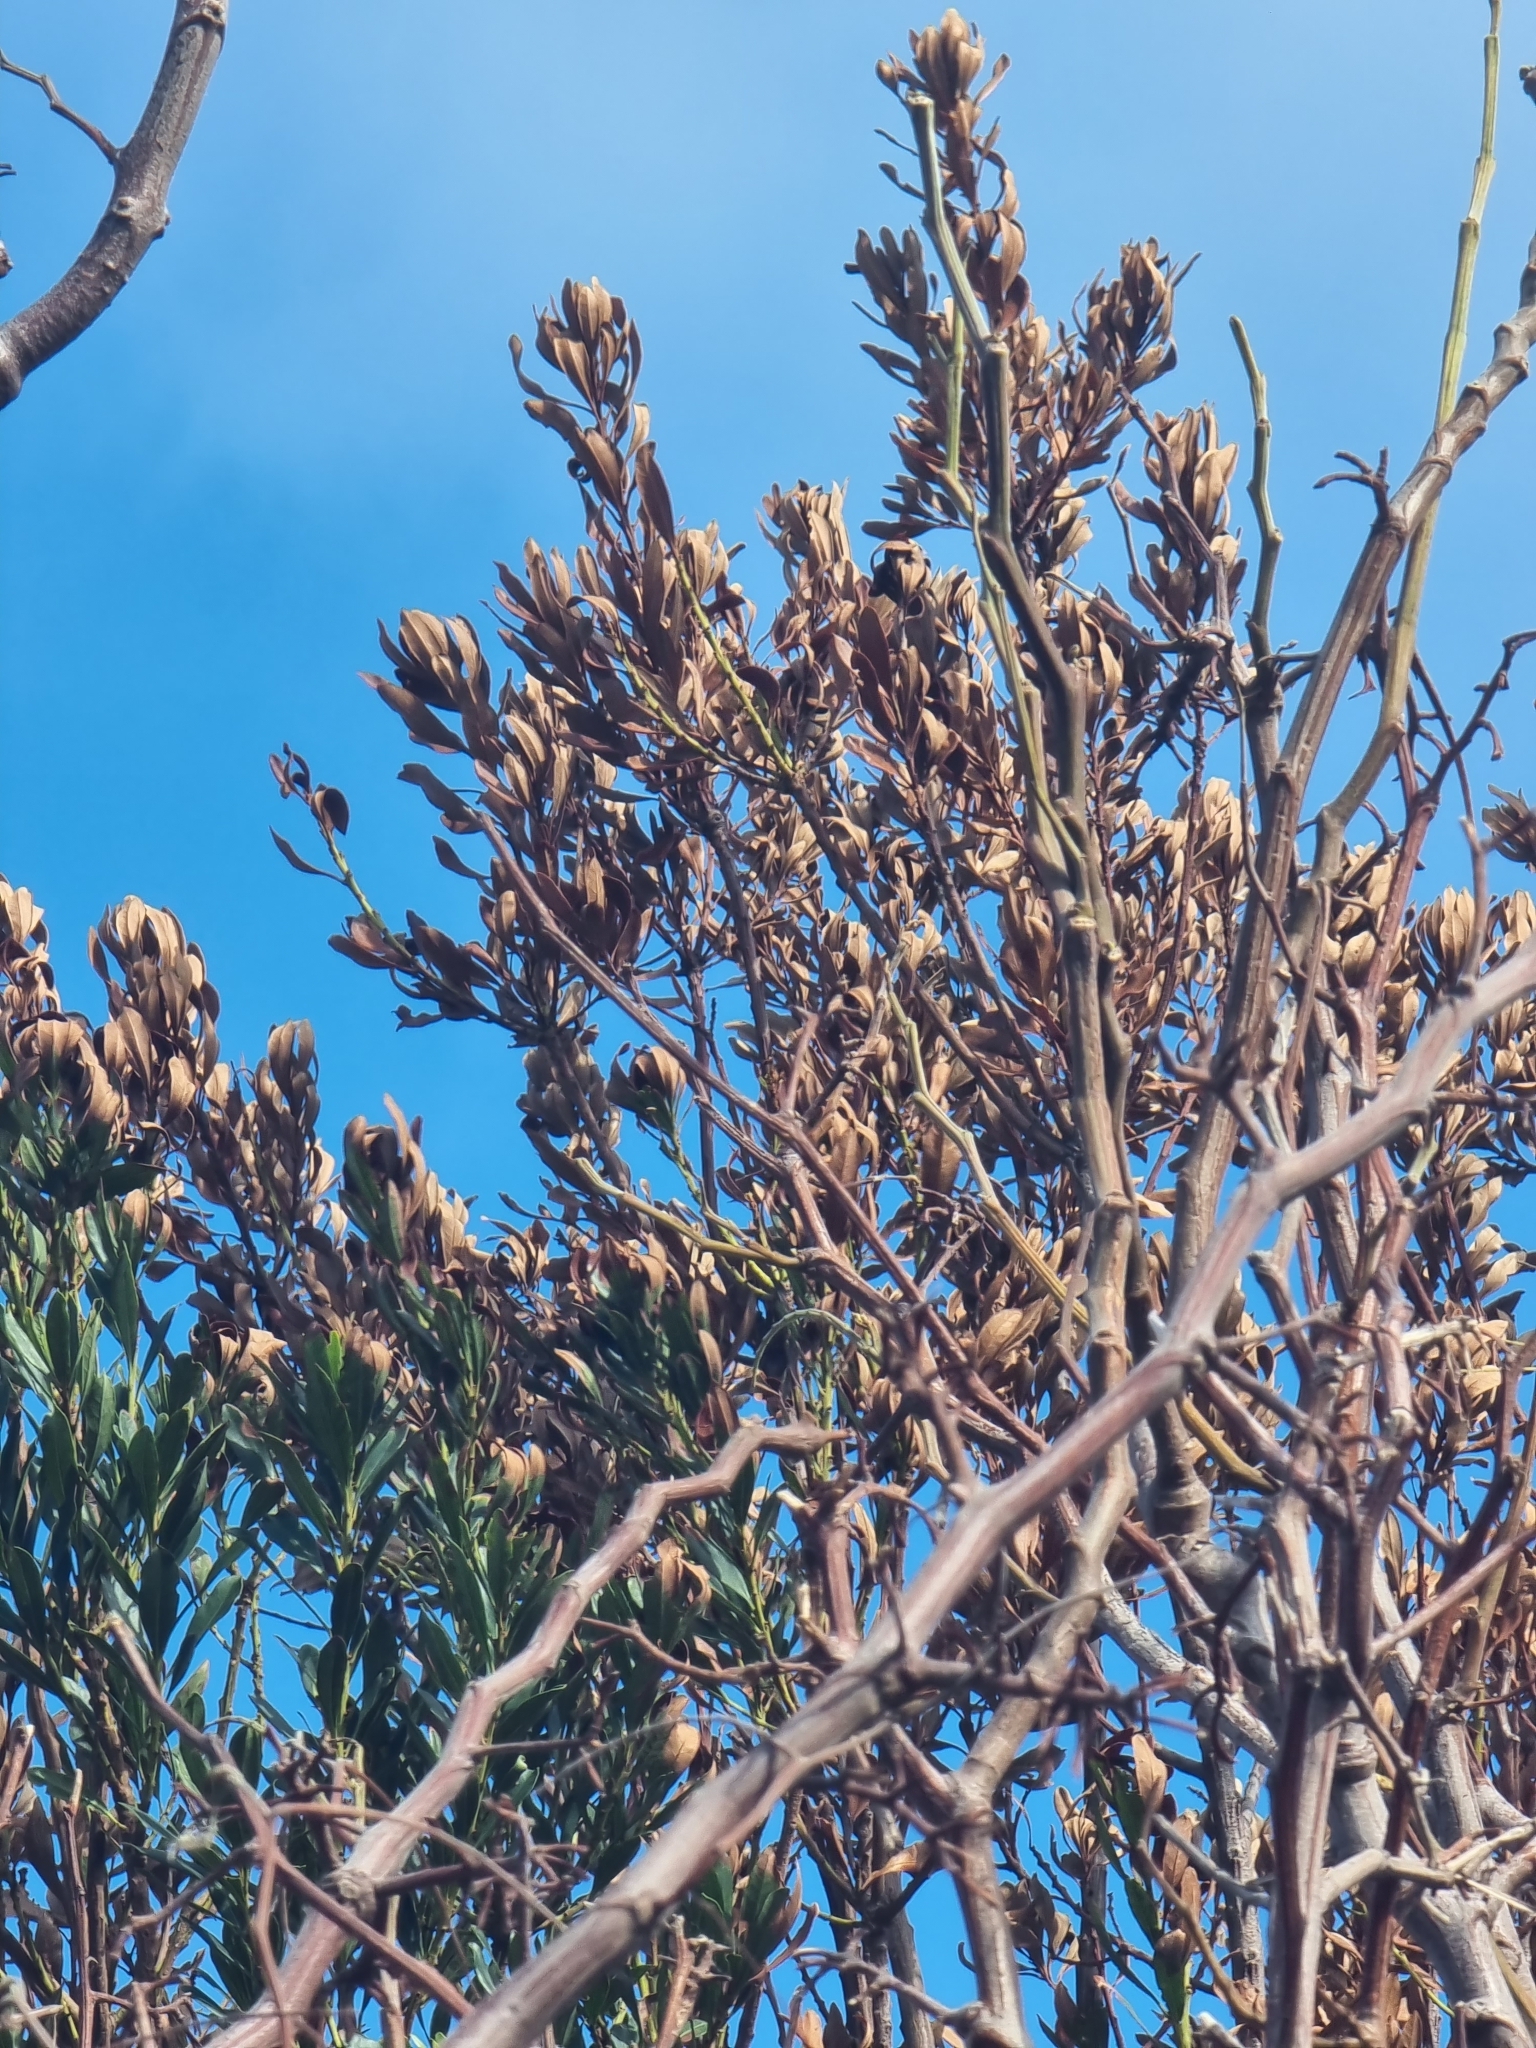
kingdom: Plantae
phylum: Tracheophyta
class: Magnoliopsida
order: Fagales
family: Myricaceae
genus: Morella
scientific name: Morella faya
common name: Firetree
